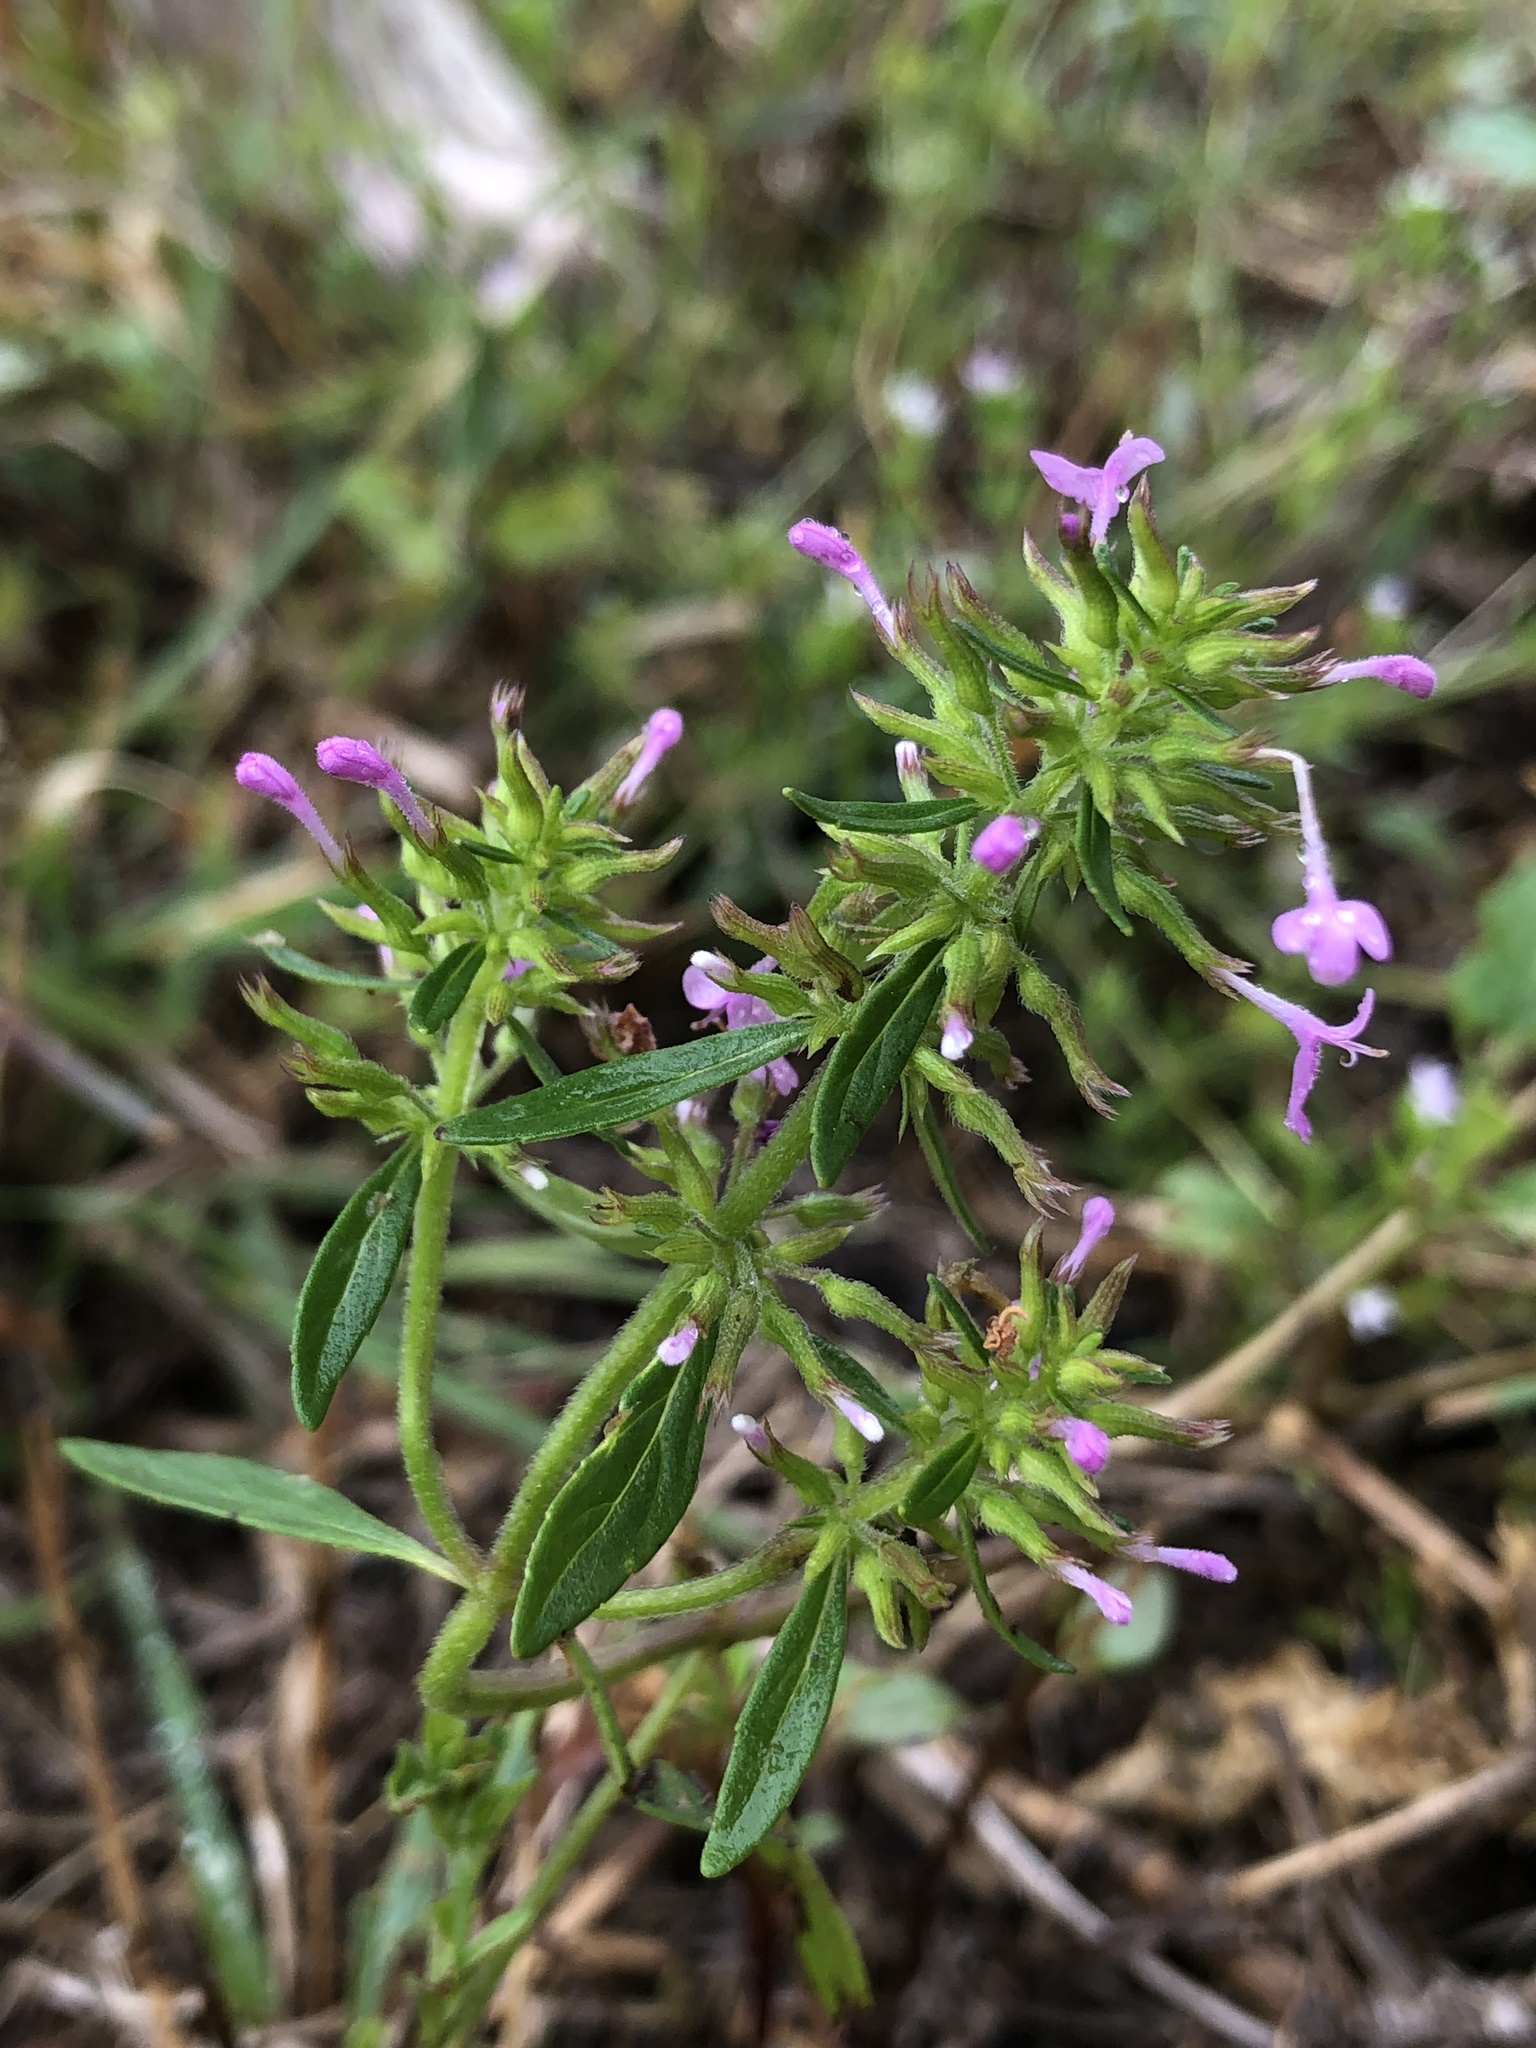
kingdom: Plantae
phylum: Tracheophyta
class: Magnoliopsida
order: Lamiales
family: Lamiaceae
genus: Hedeoma
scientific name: Hedeoma acinoides
